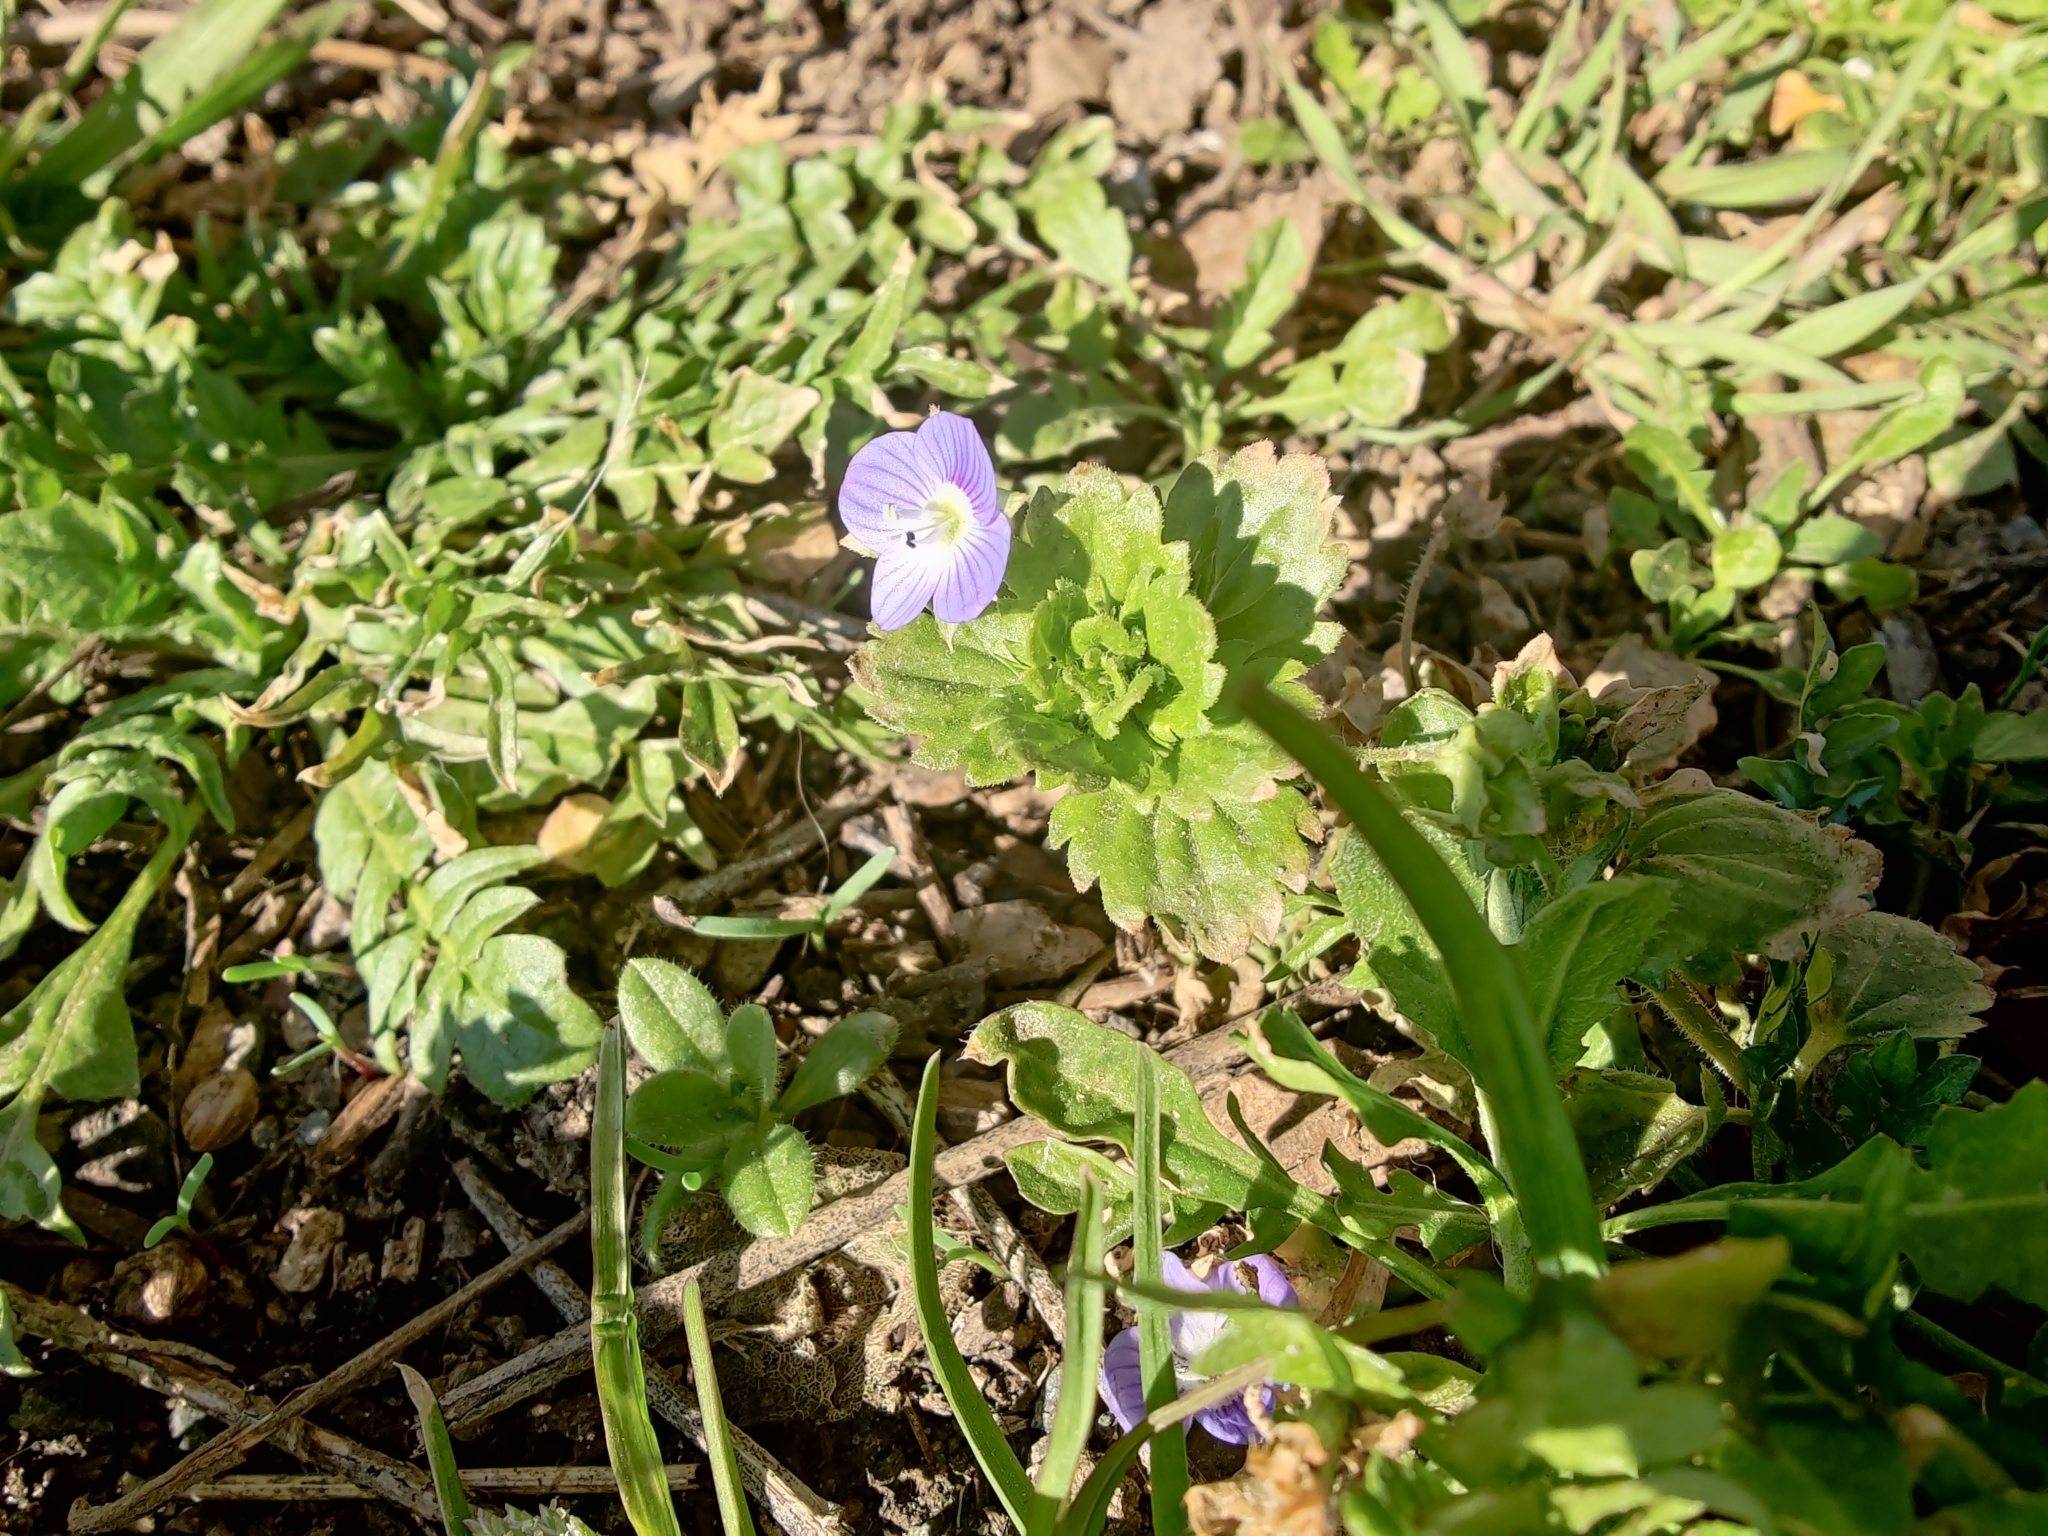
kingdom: Plantae
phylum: Tracheophyta
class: Magnoliopsida
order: Lamiales
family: Plantaginaceae
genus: Veronica
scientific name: Veronica persica
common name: Common field-speedwell
